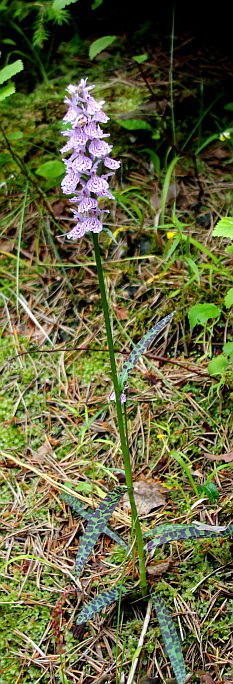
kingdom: Plantae
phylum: Tracheophyta
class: Liliopsida
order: Asparagales
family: Orchidaceae
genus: Dactylorhiza
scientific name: Dactylorhiza maculata
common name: Heath spotted-orchid
